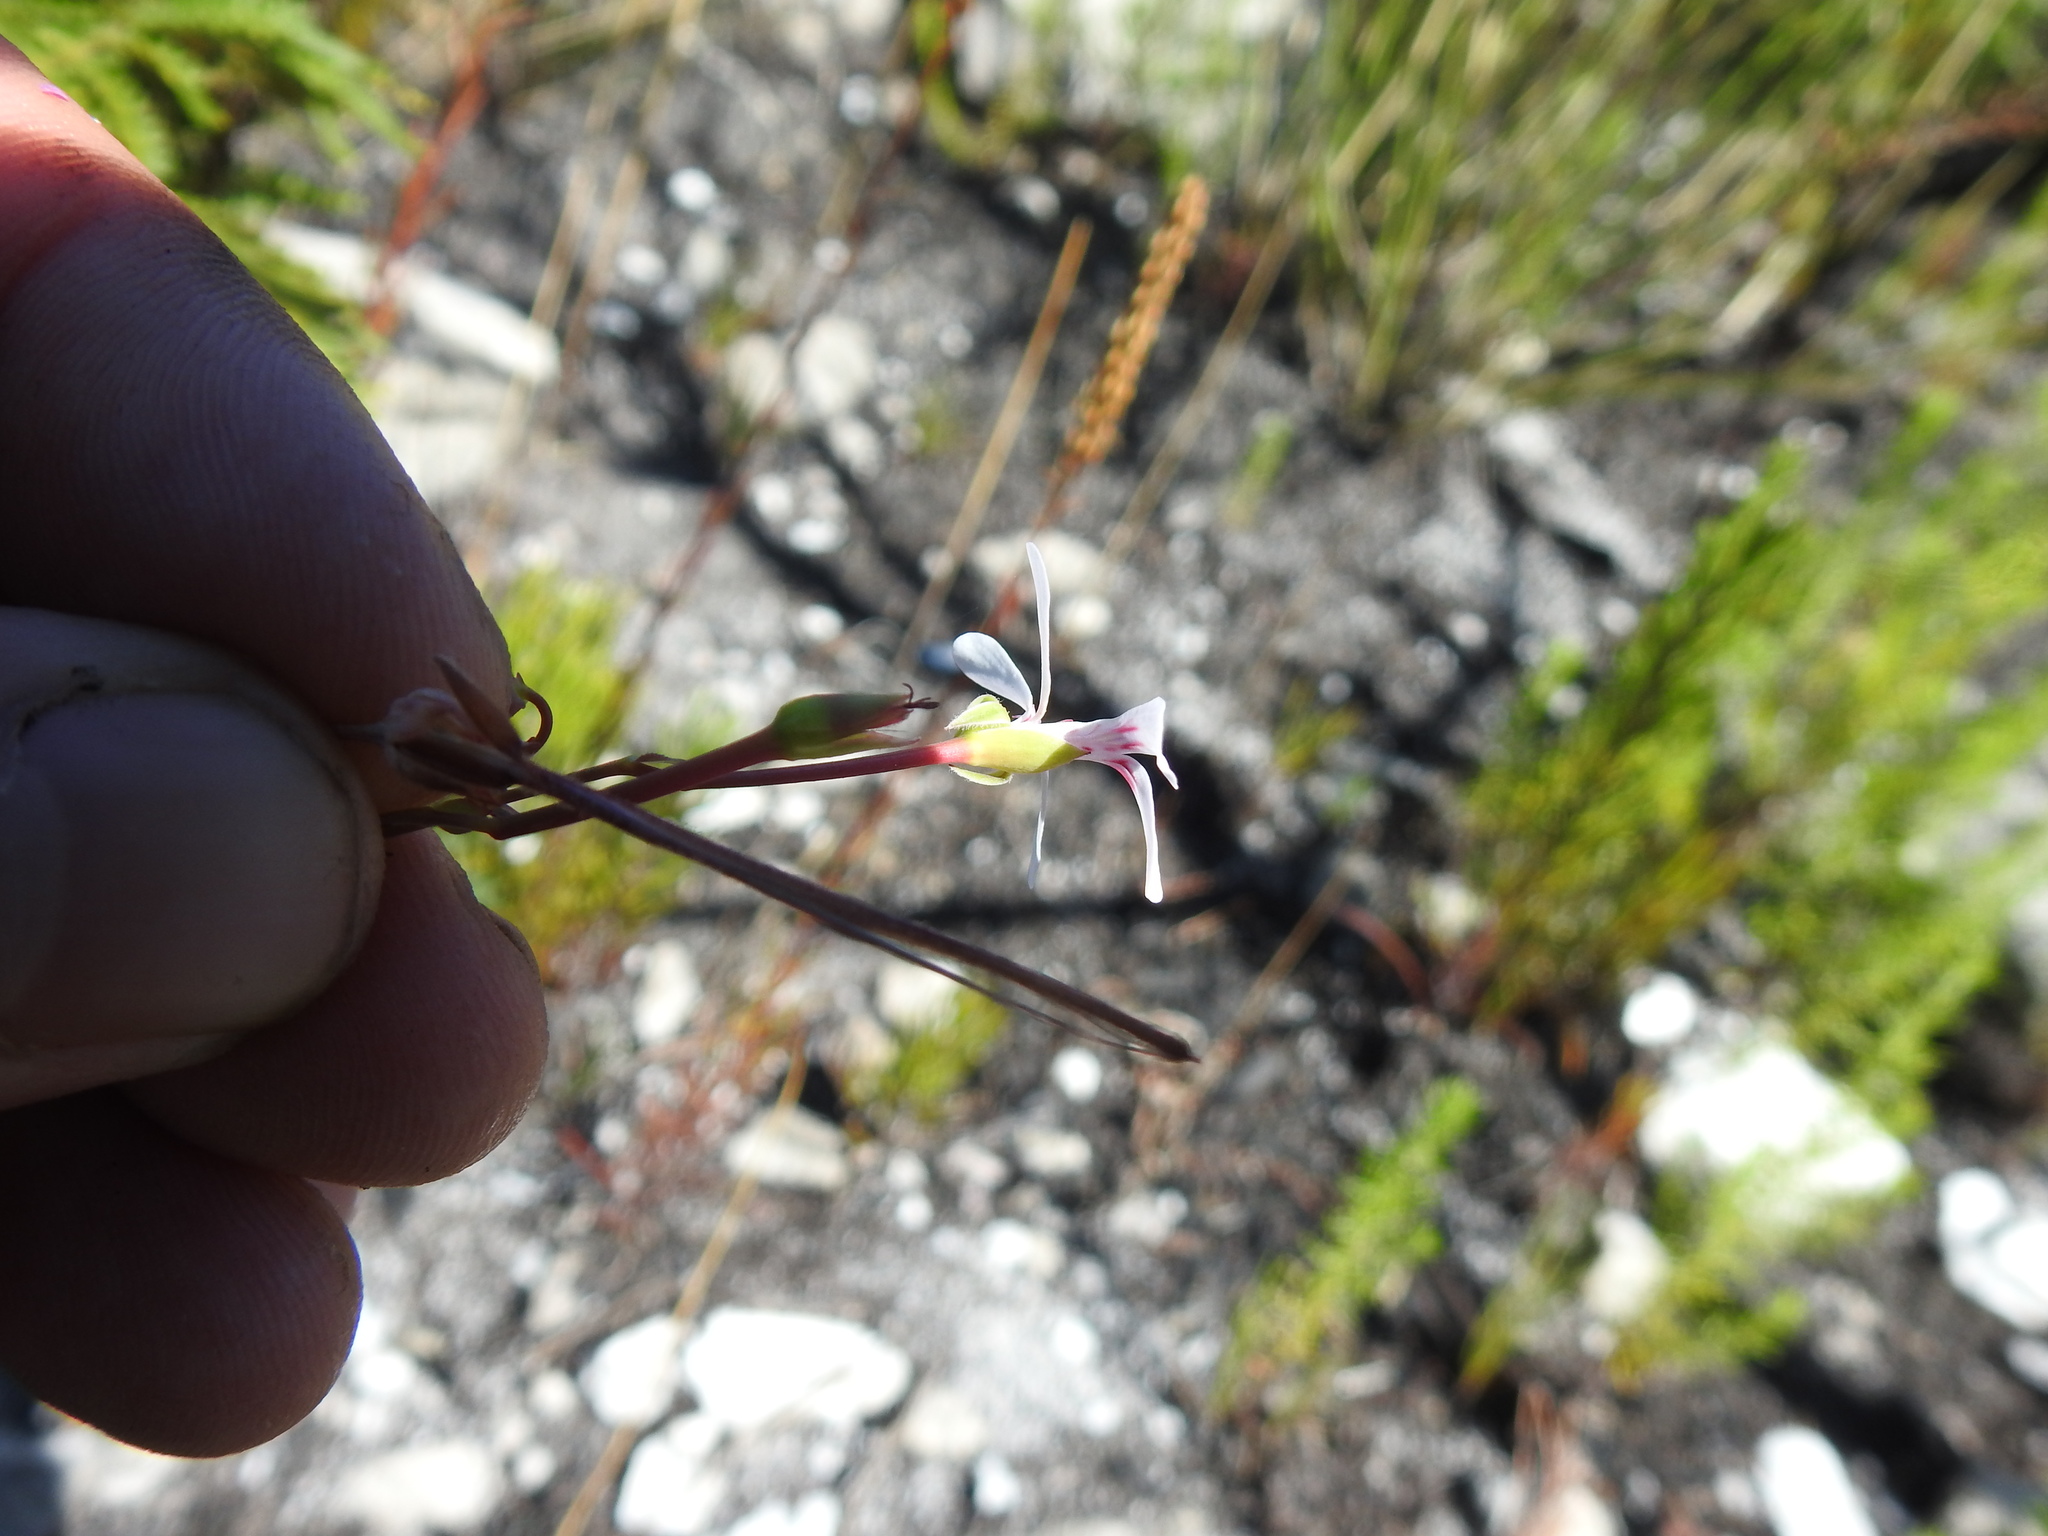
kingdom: Plantae
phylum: Tracheophyta
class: Magnoliopsida
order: Geraniales
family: Geraniaceae
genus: Pelargonium
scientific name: Pelargonium patulum
